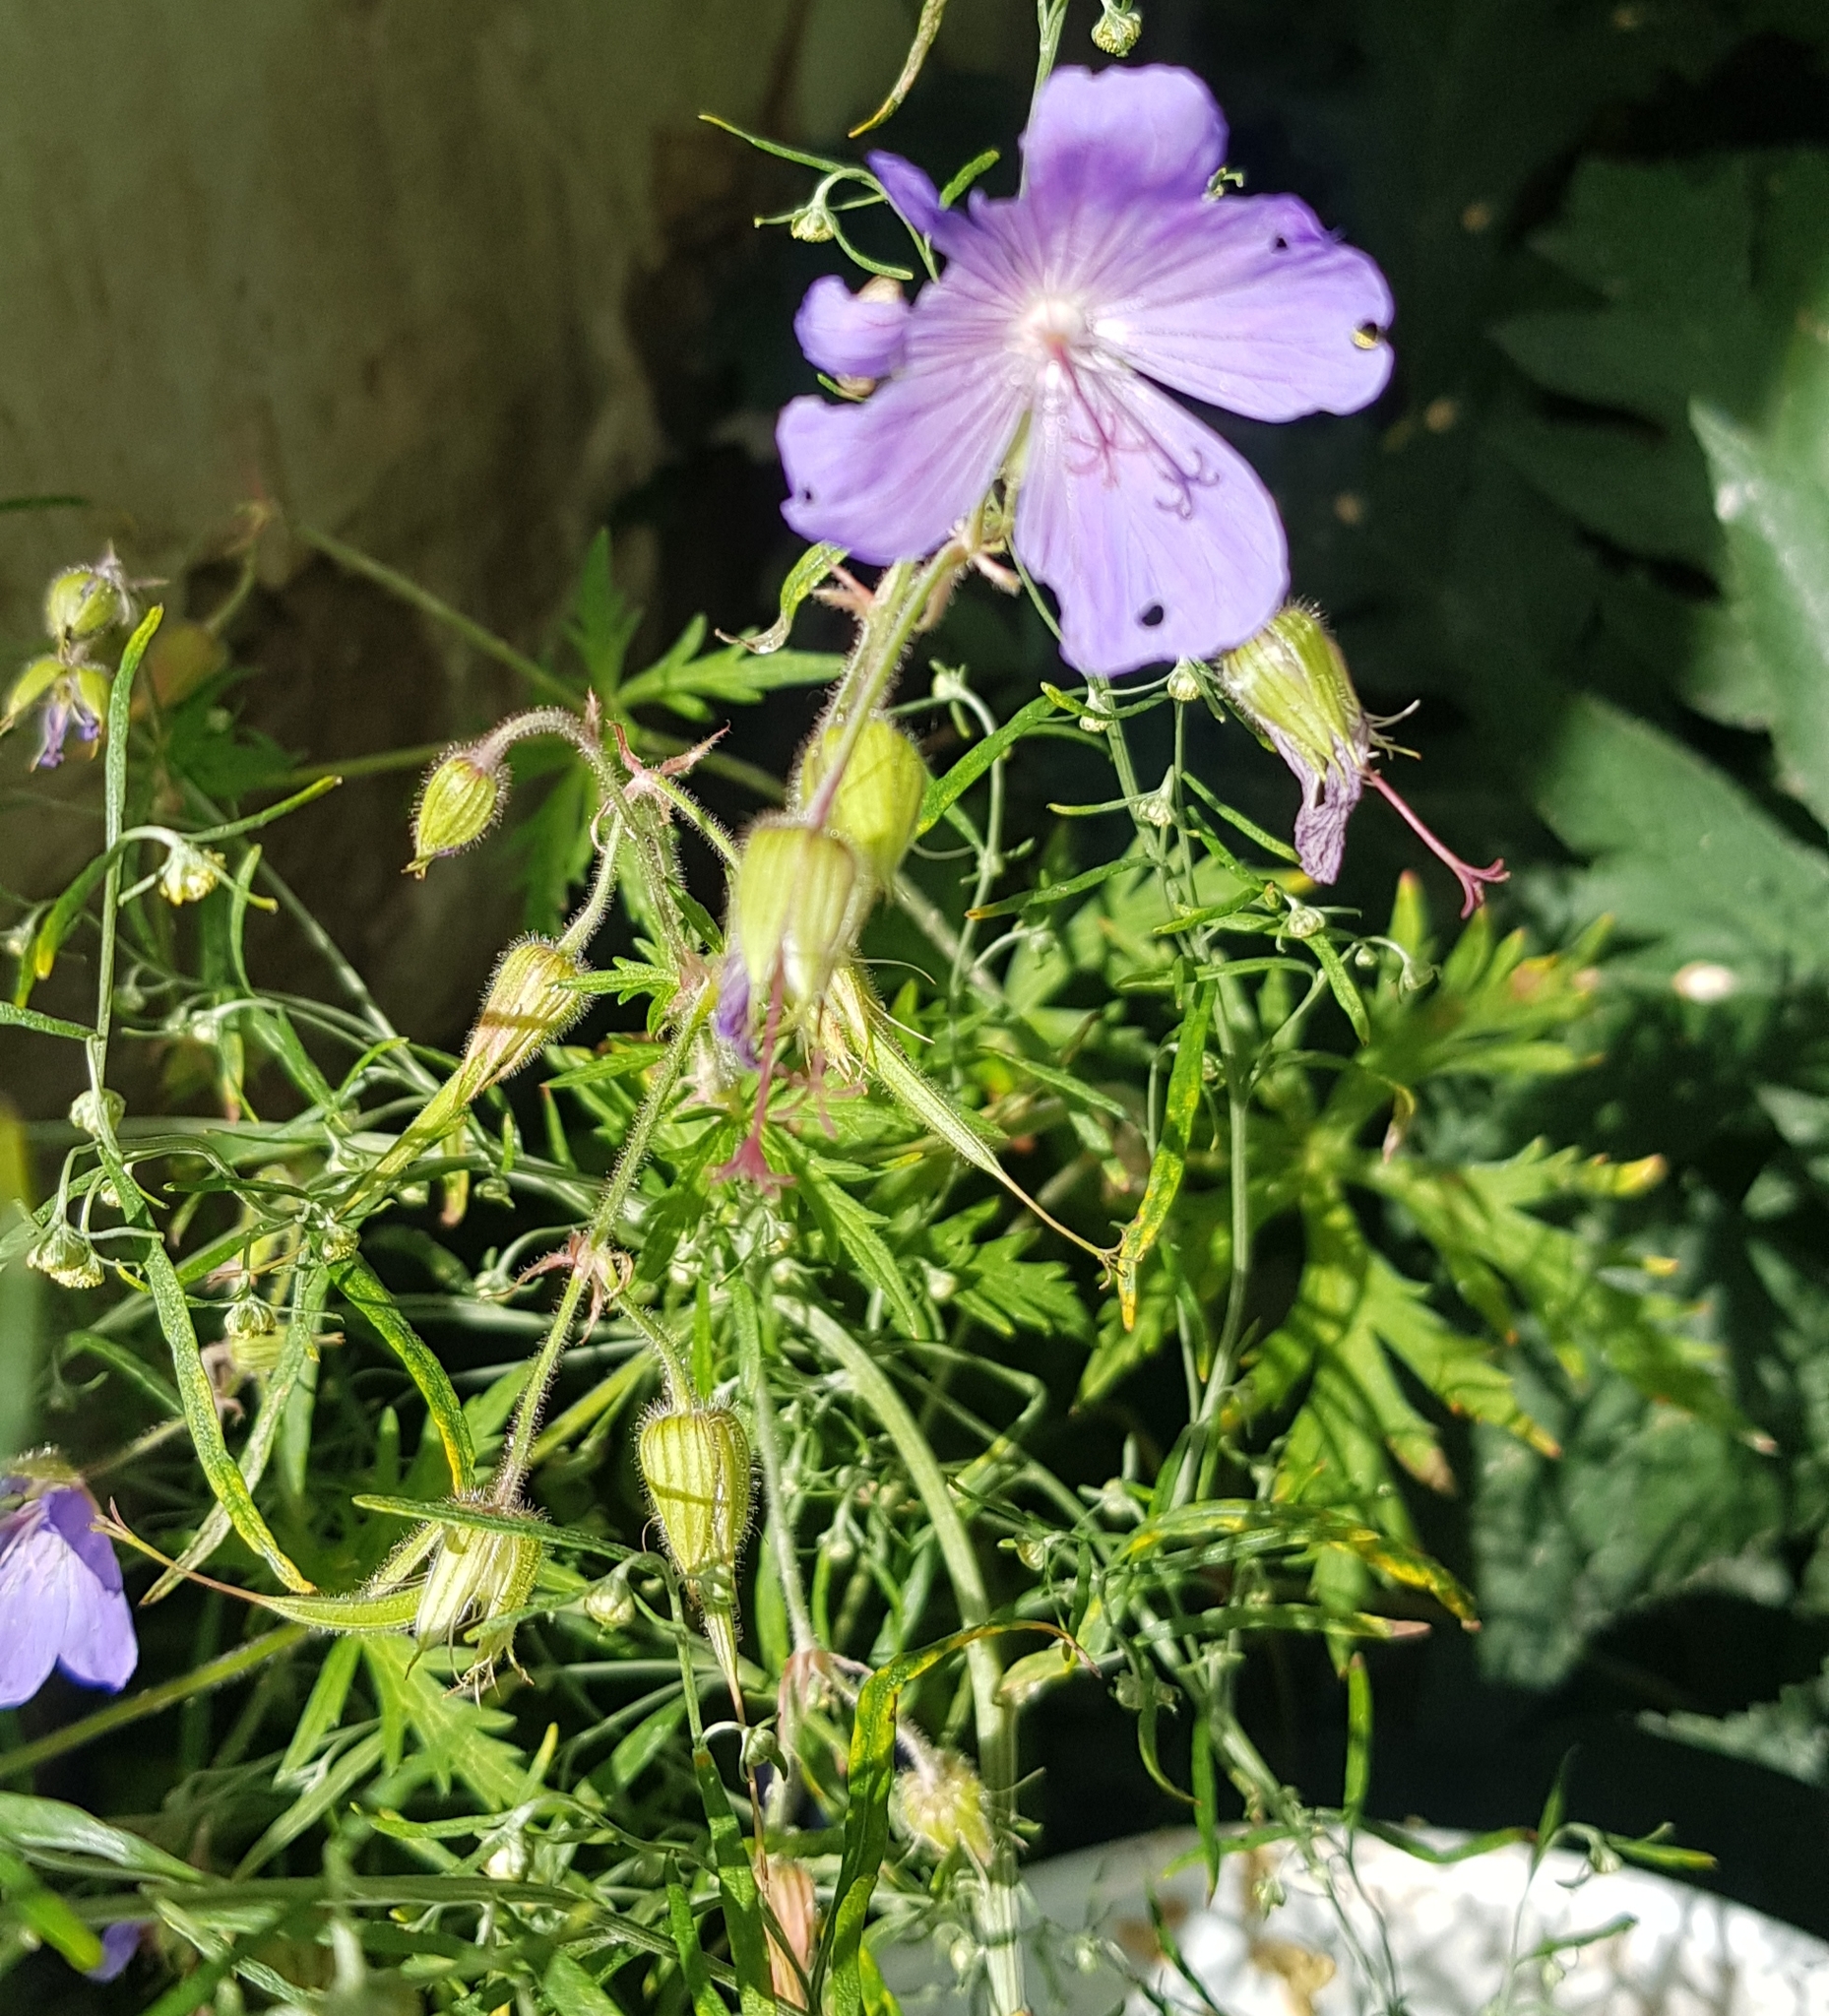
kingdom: Plantae
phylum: Tracheophyta
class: Magnoliopsida
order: Geraniales
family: Geraniaceae
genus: Geranium
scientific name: Geranium pratense
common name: Meadow crane's-bill
